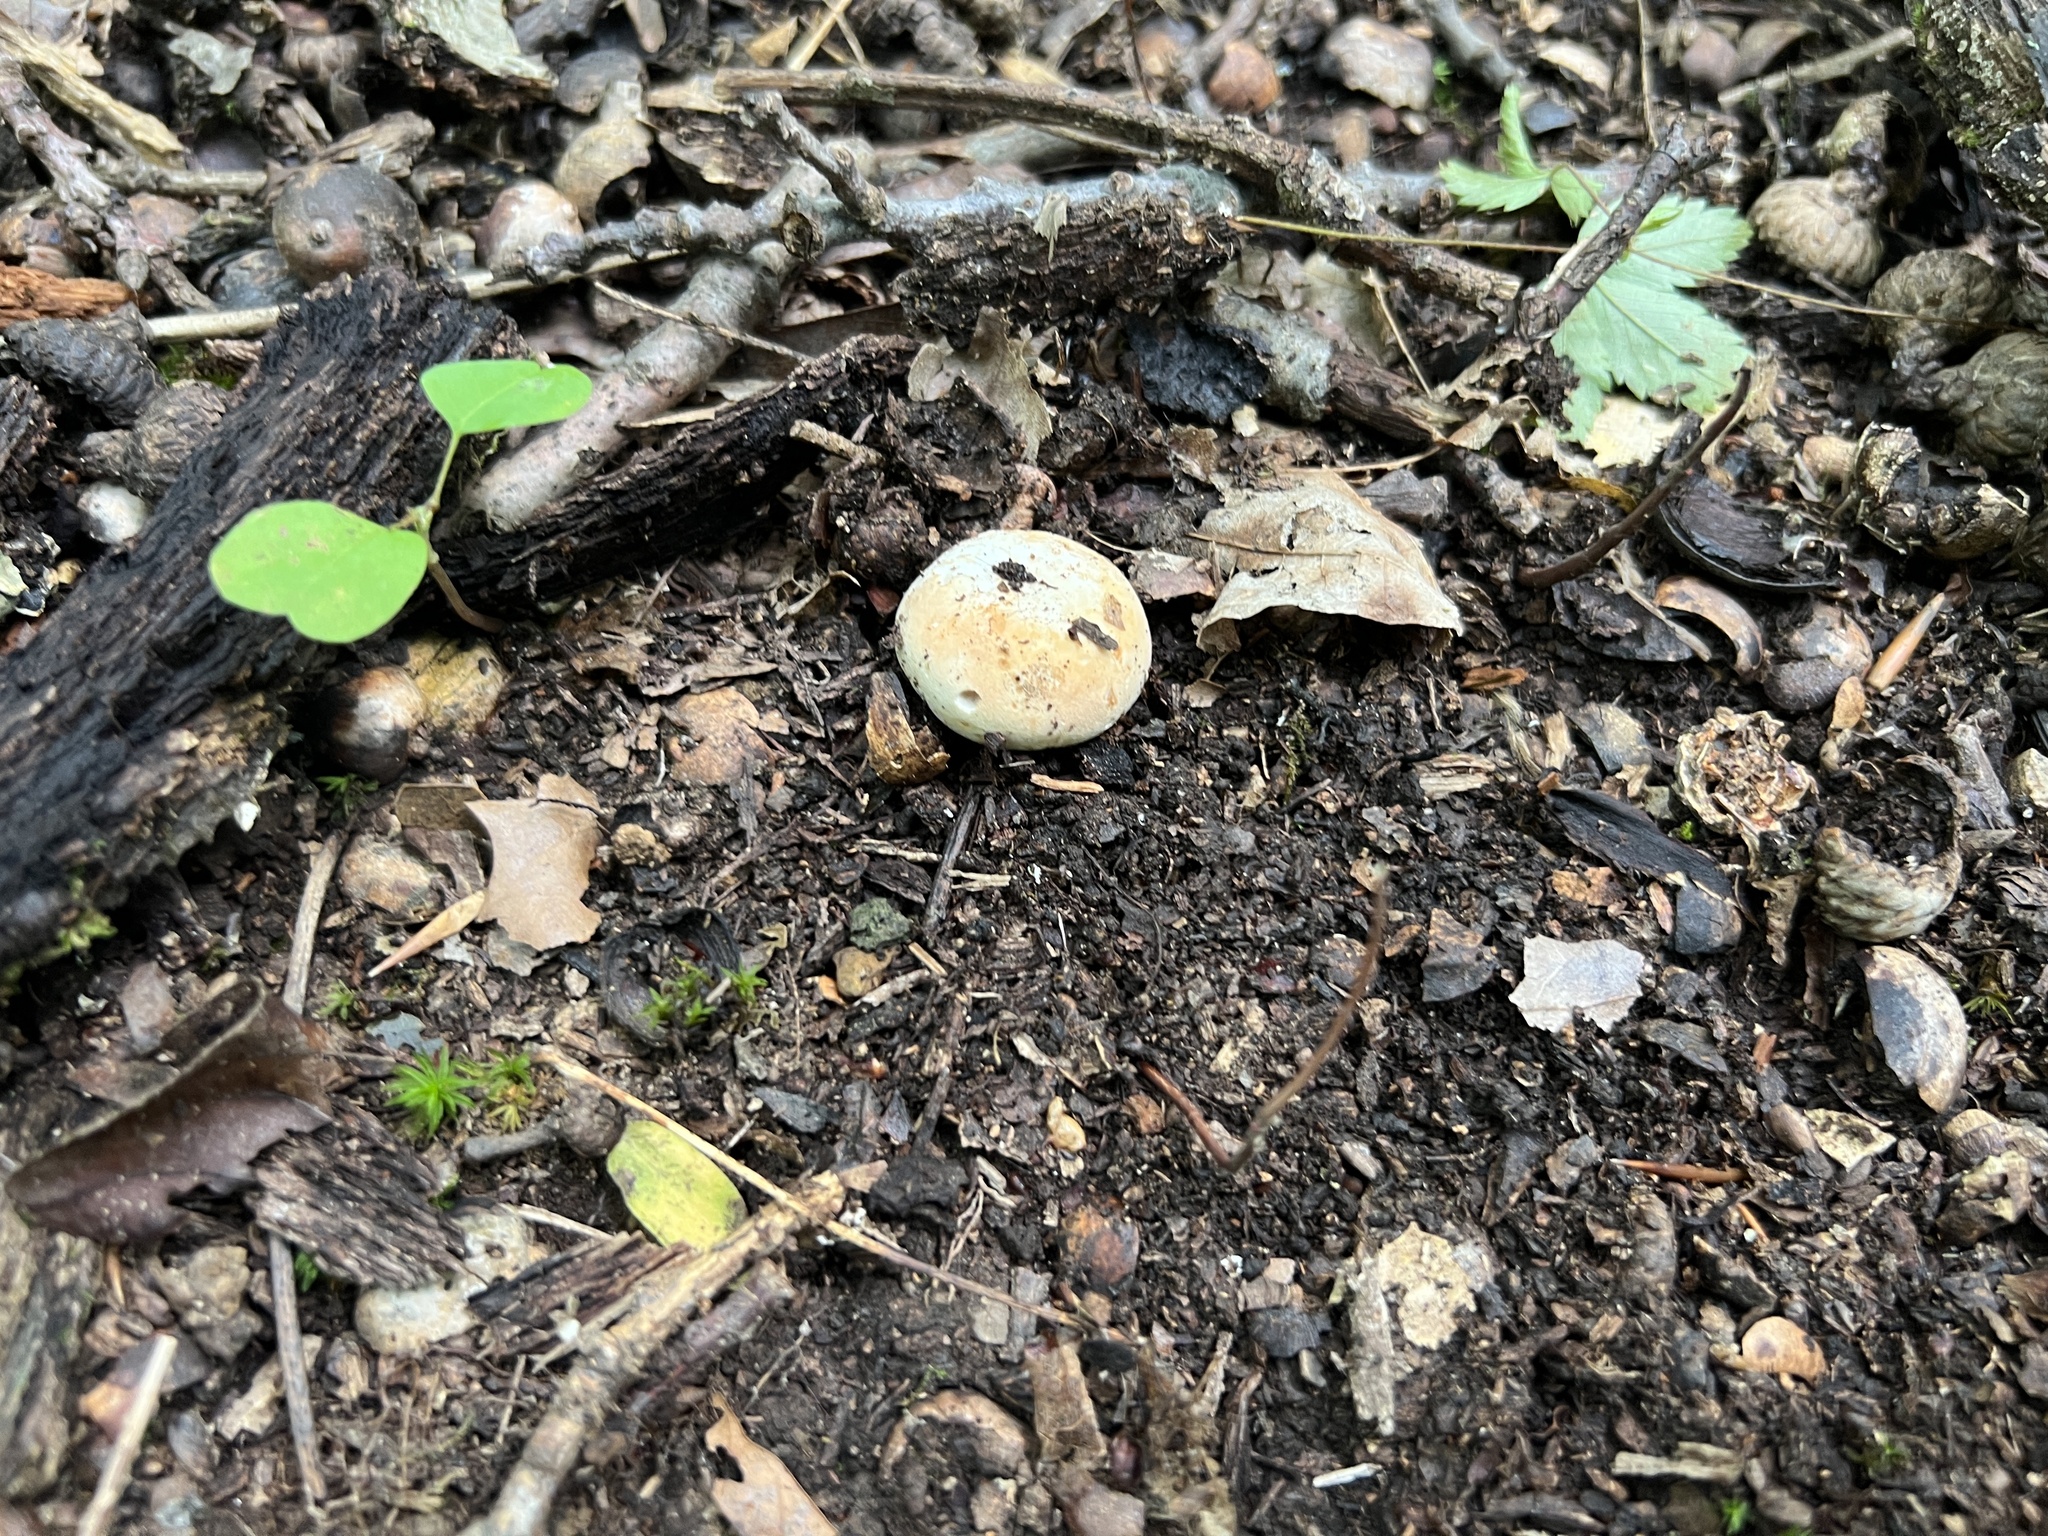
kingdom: Fungi
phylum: Basidiomycota
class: Agaricomycetes
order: Russulales
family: Russulaceae
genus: Russula
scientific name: Russula compacta
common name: Fishbiscuit russula
